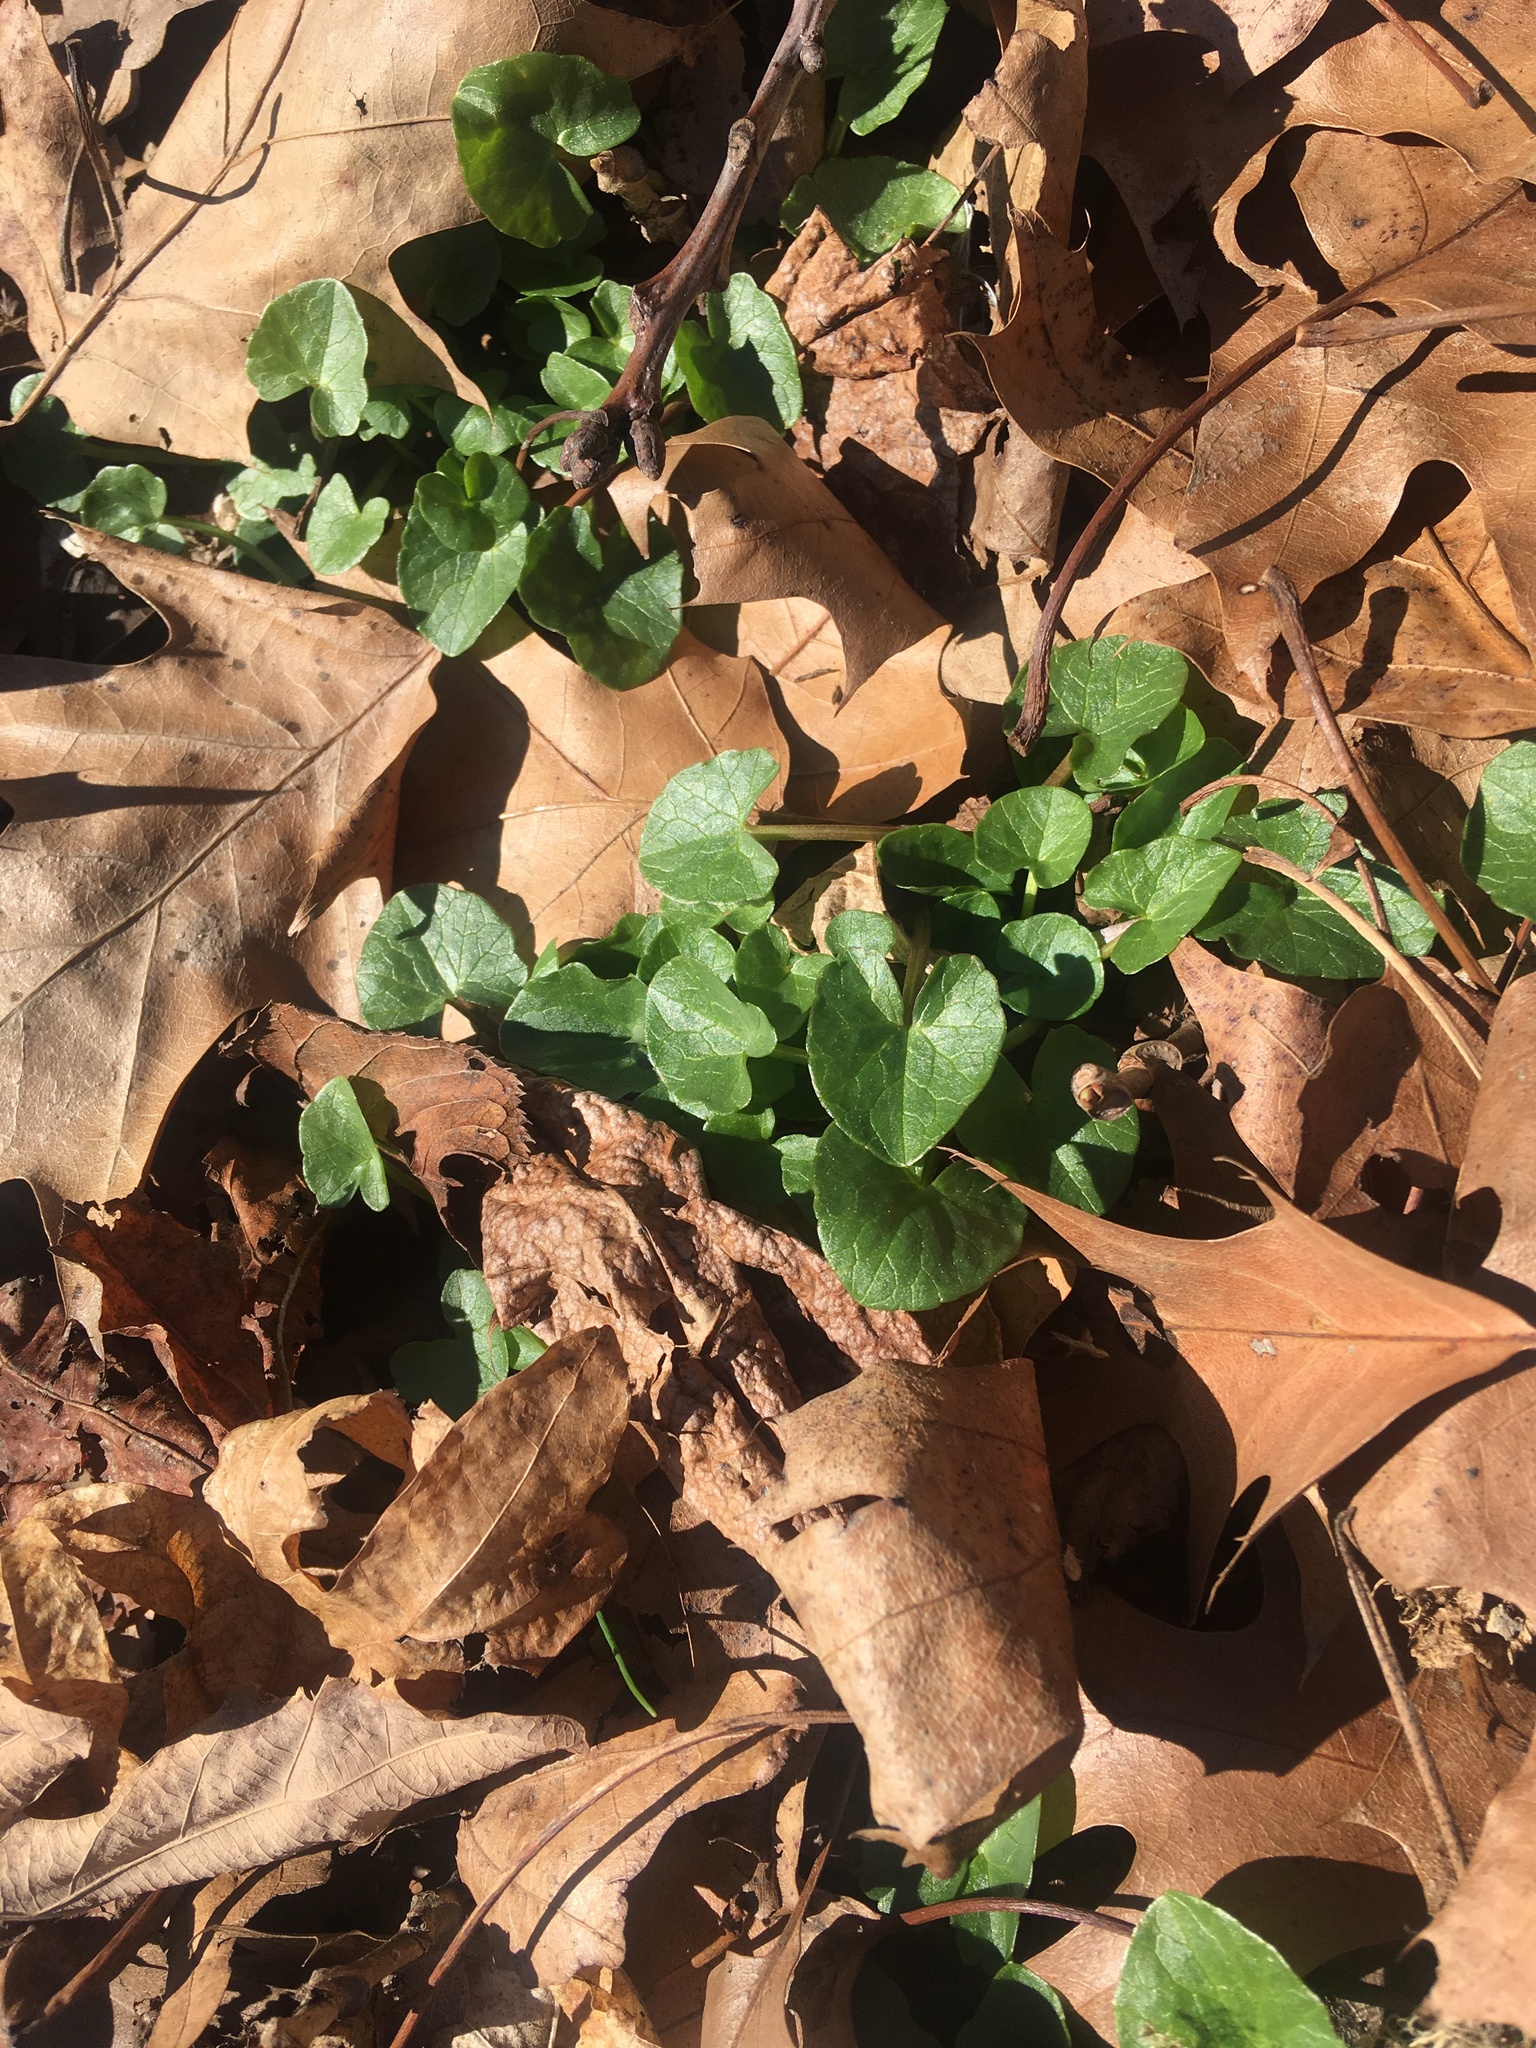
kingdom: Plantae
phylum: Tracheophyta
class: Magnoliopsida
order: Ranunculales
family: Ranunculaceae
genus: Ficaria
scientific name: Ficaria verna
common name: Lesser celandine
